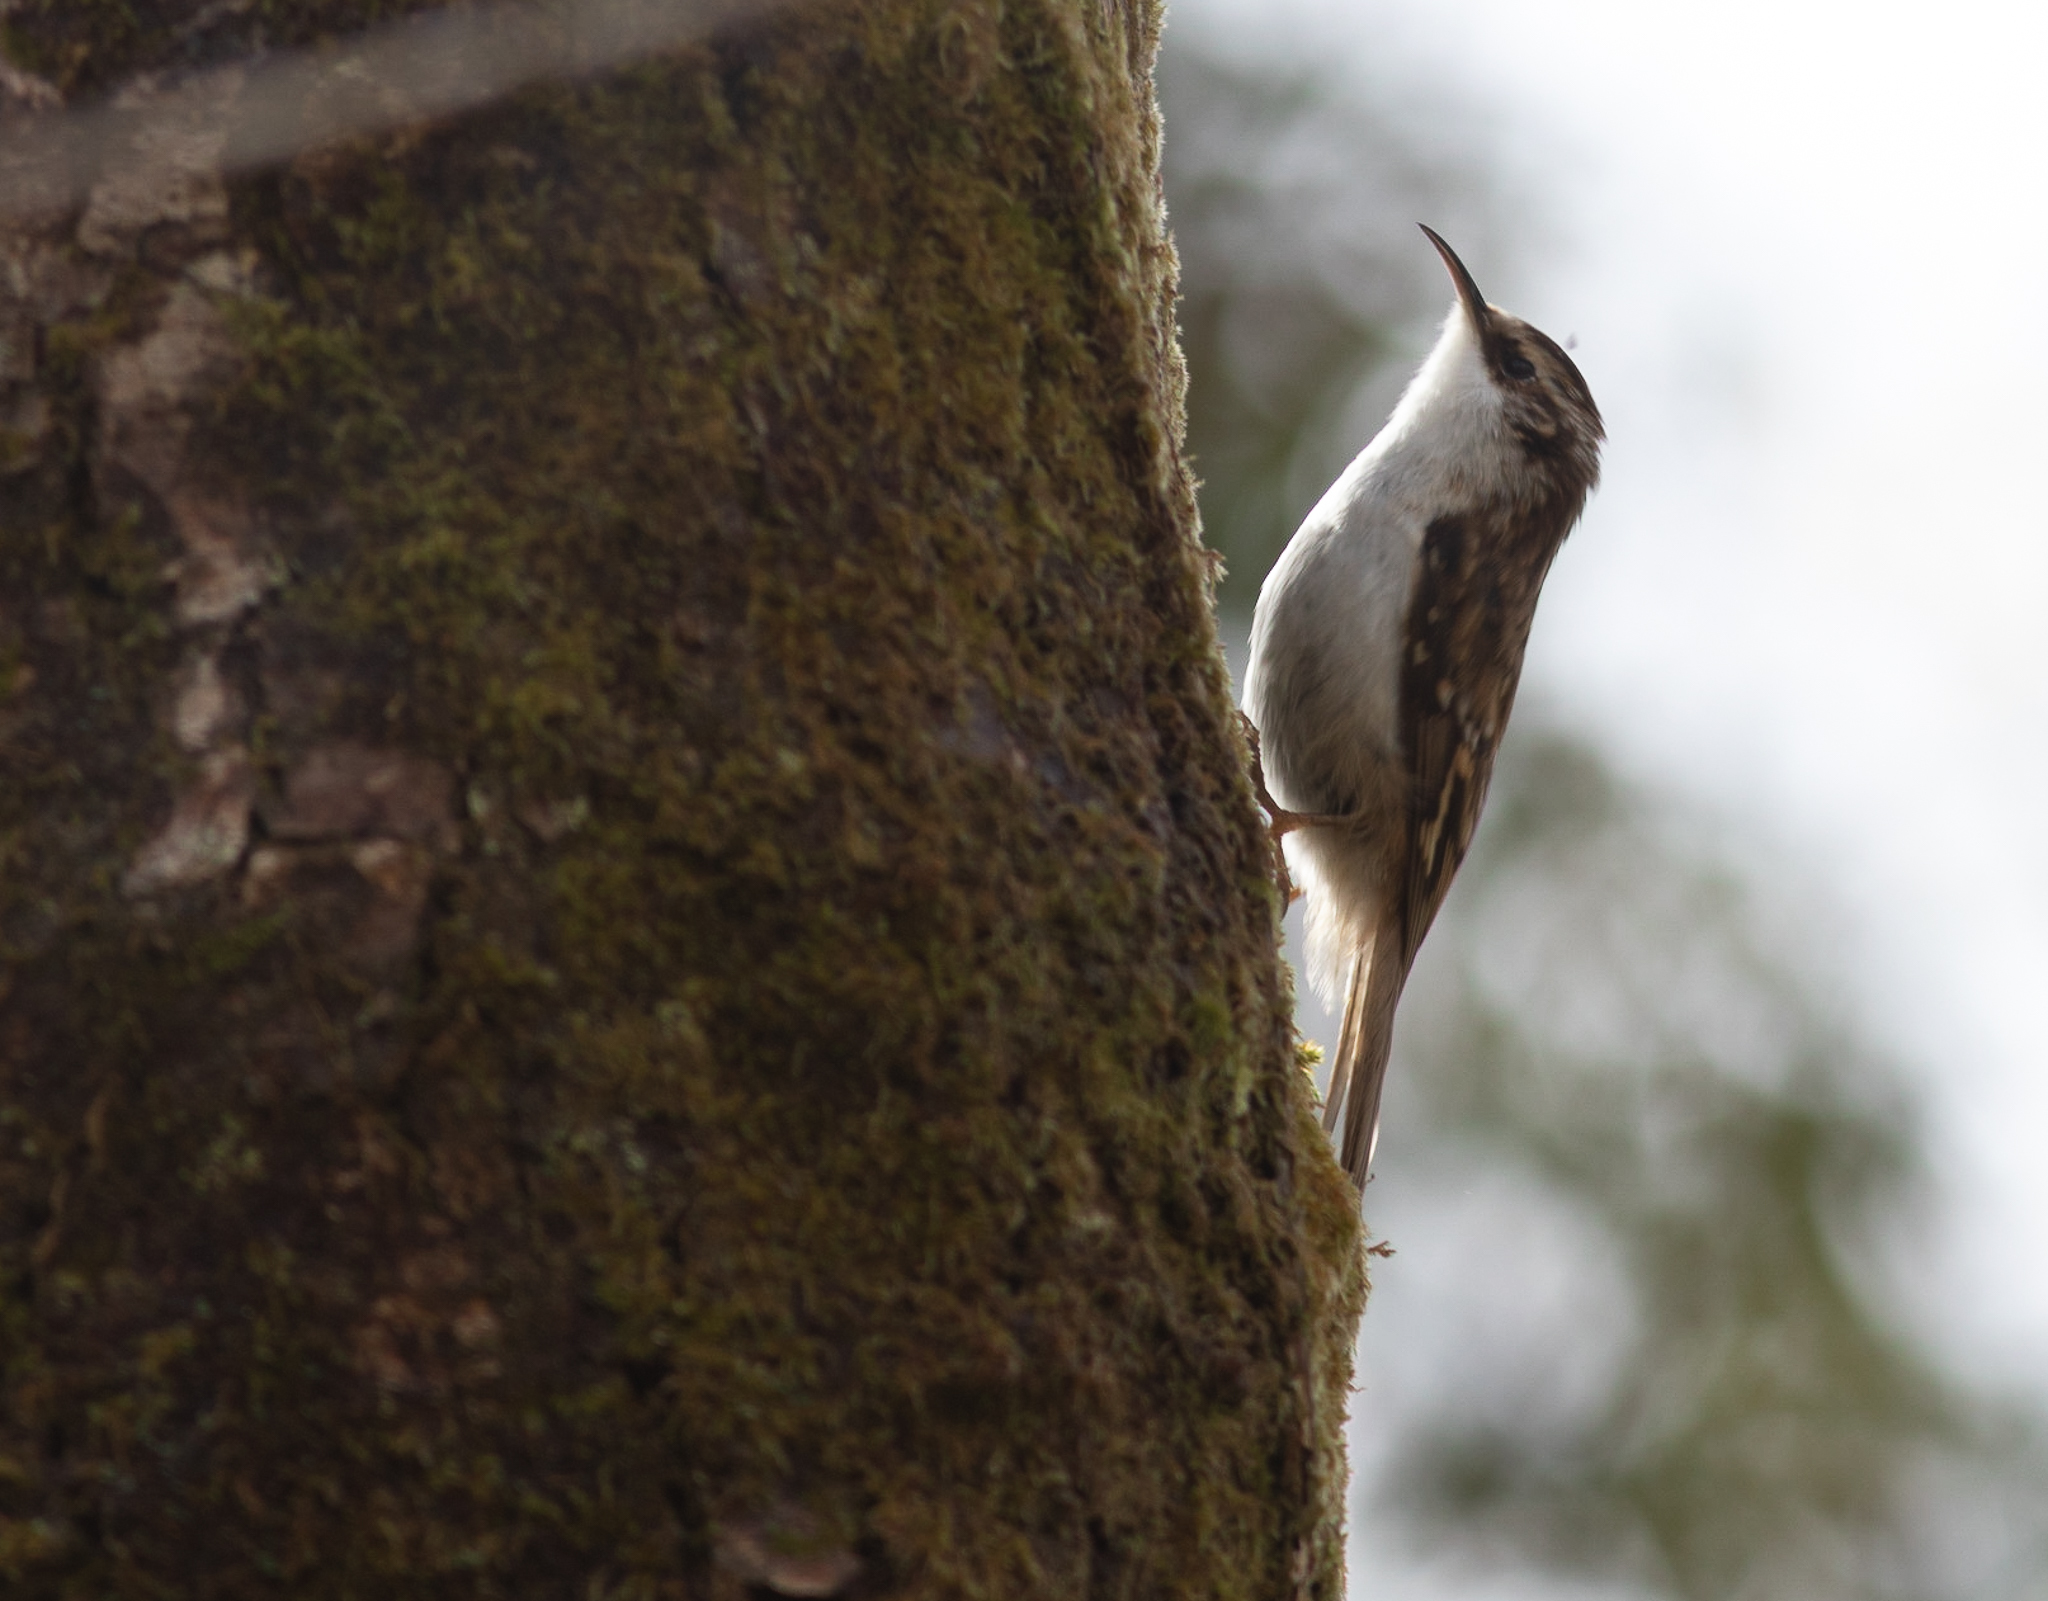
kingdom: Animalia
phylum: Chordata
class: Aves
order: Passeriformes
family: Certhiidae
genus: Certhia
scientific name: Certhia familiaris
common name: Eurasian treecreeper
